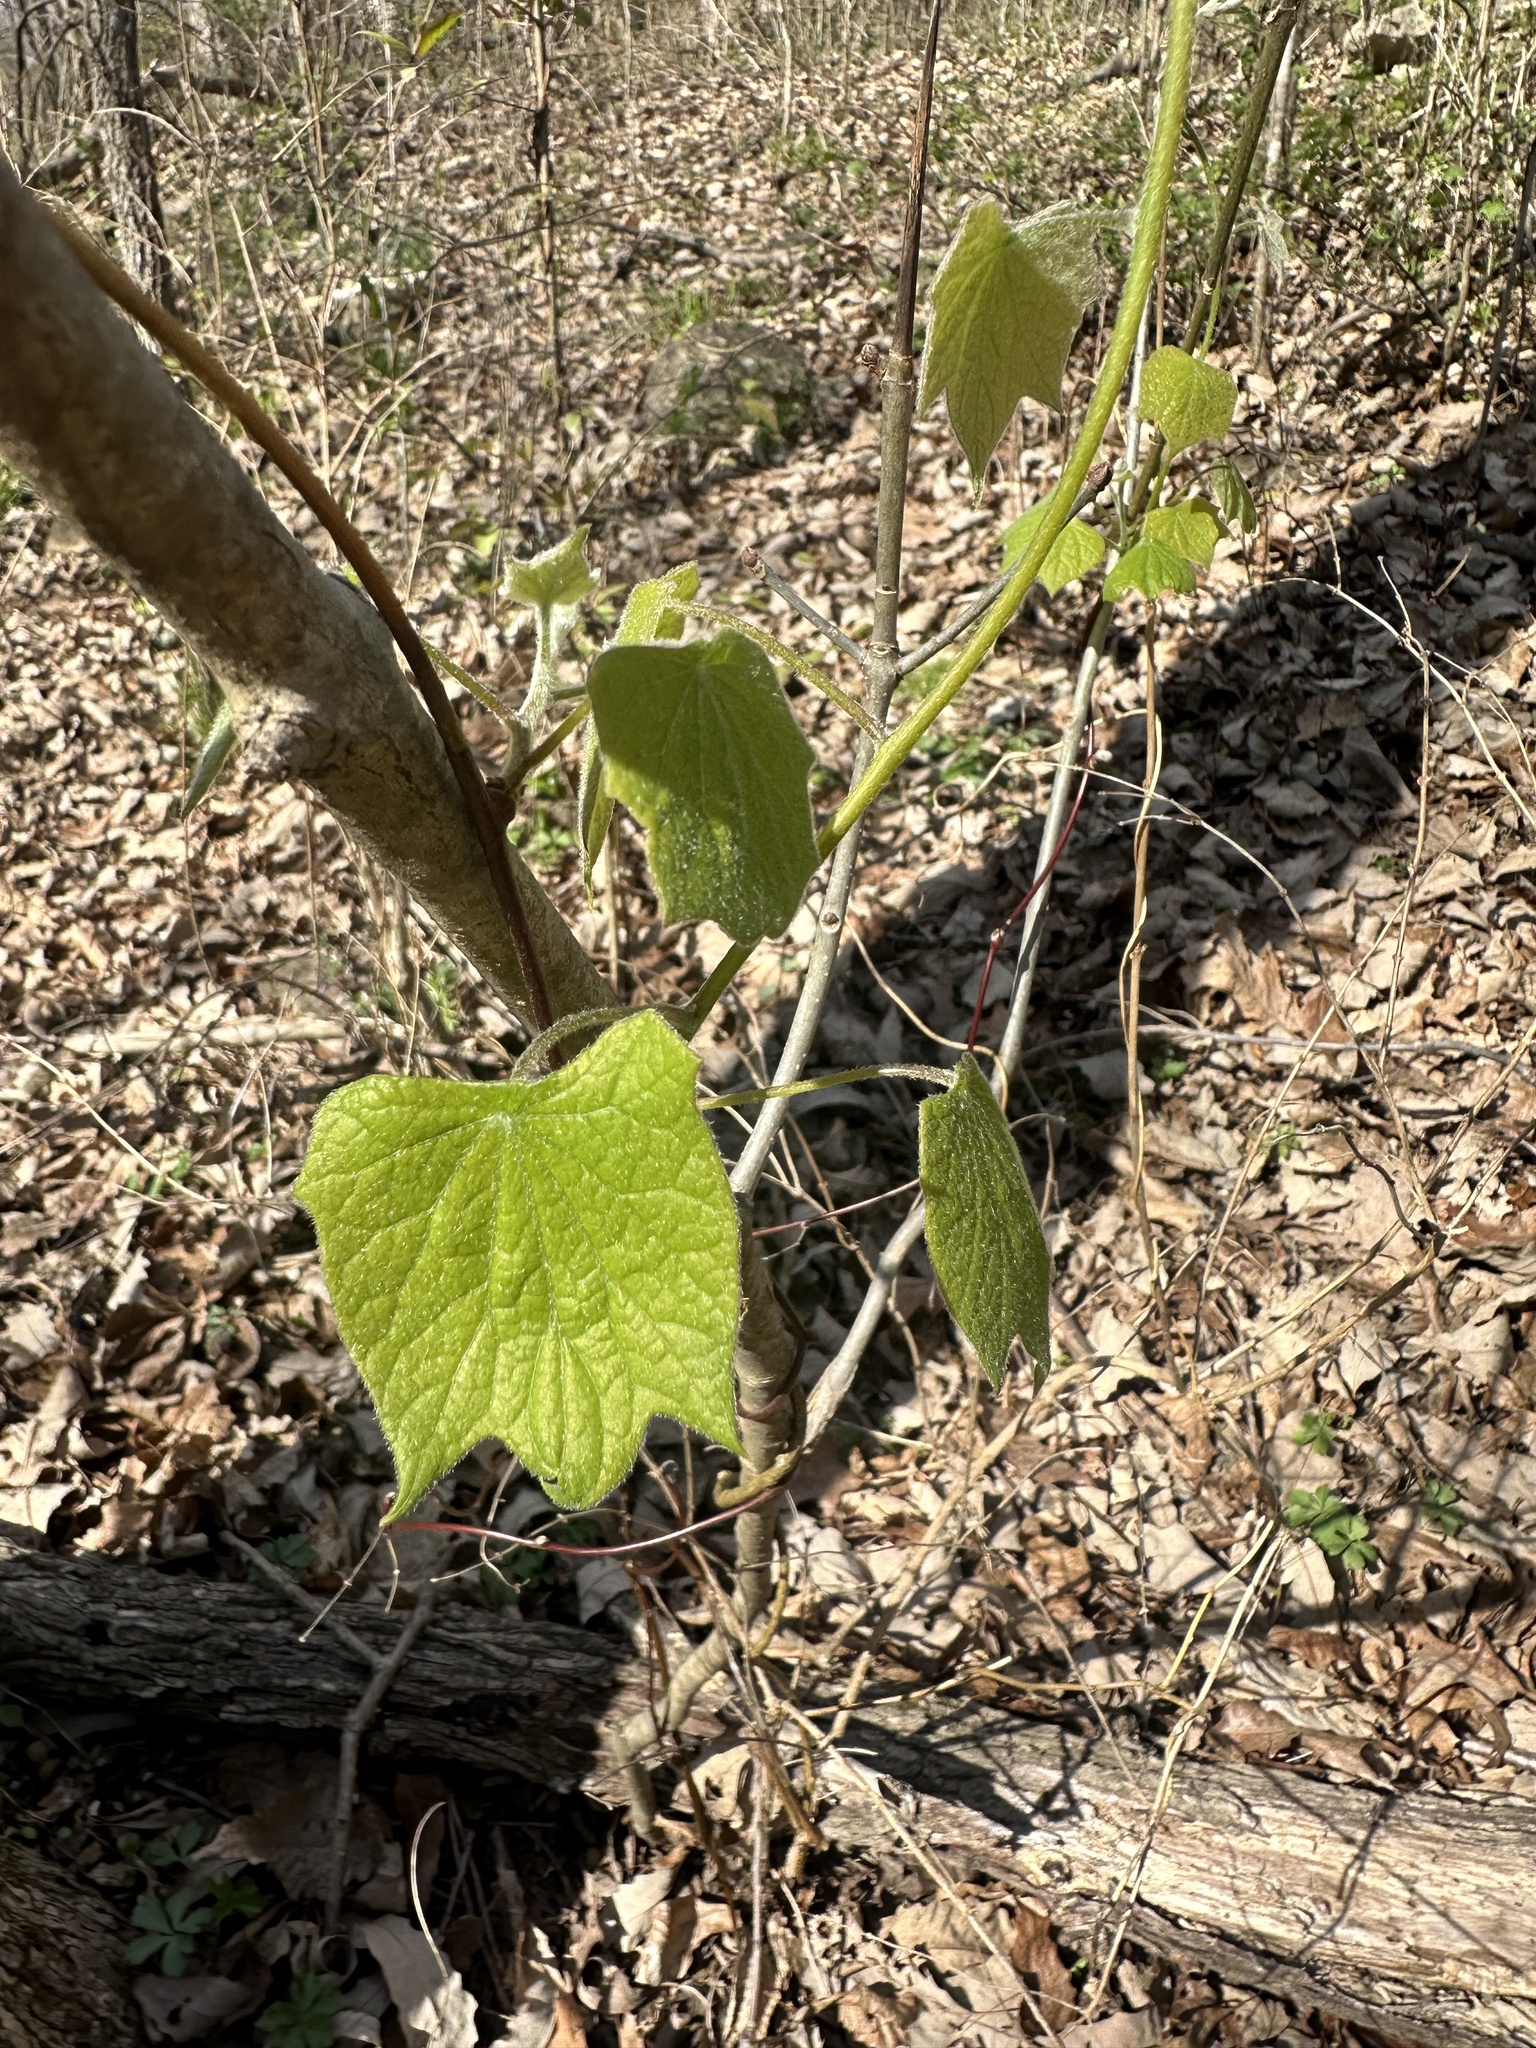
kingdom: Plantae
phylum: Tracheophyta
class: Magnoliopsida
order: Ranunculales
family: Menispermaceae
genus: Menispermum
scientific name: Menispermum canadense
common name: Moonseed
